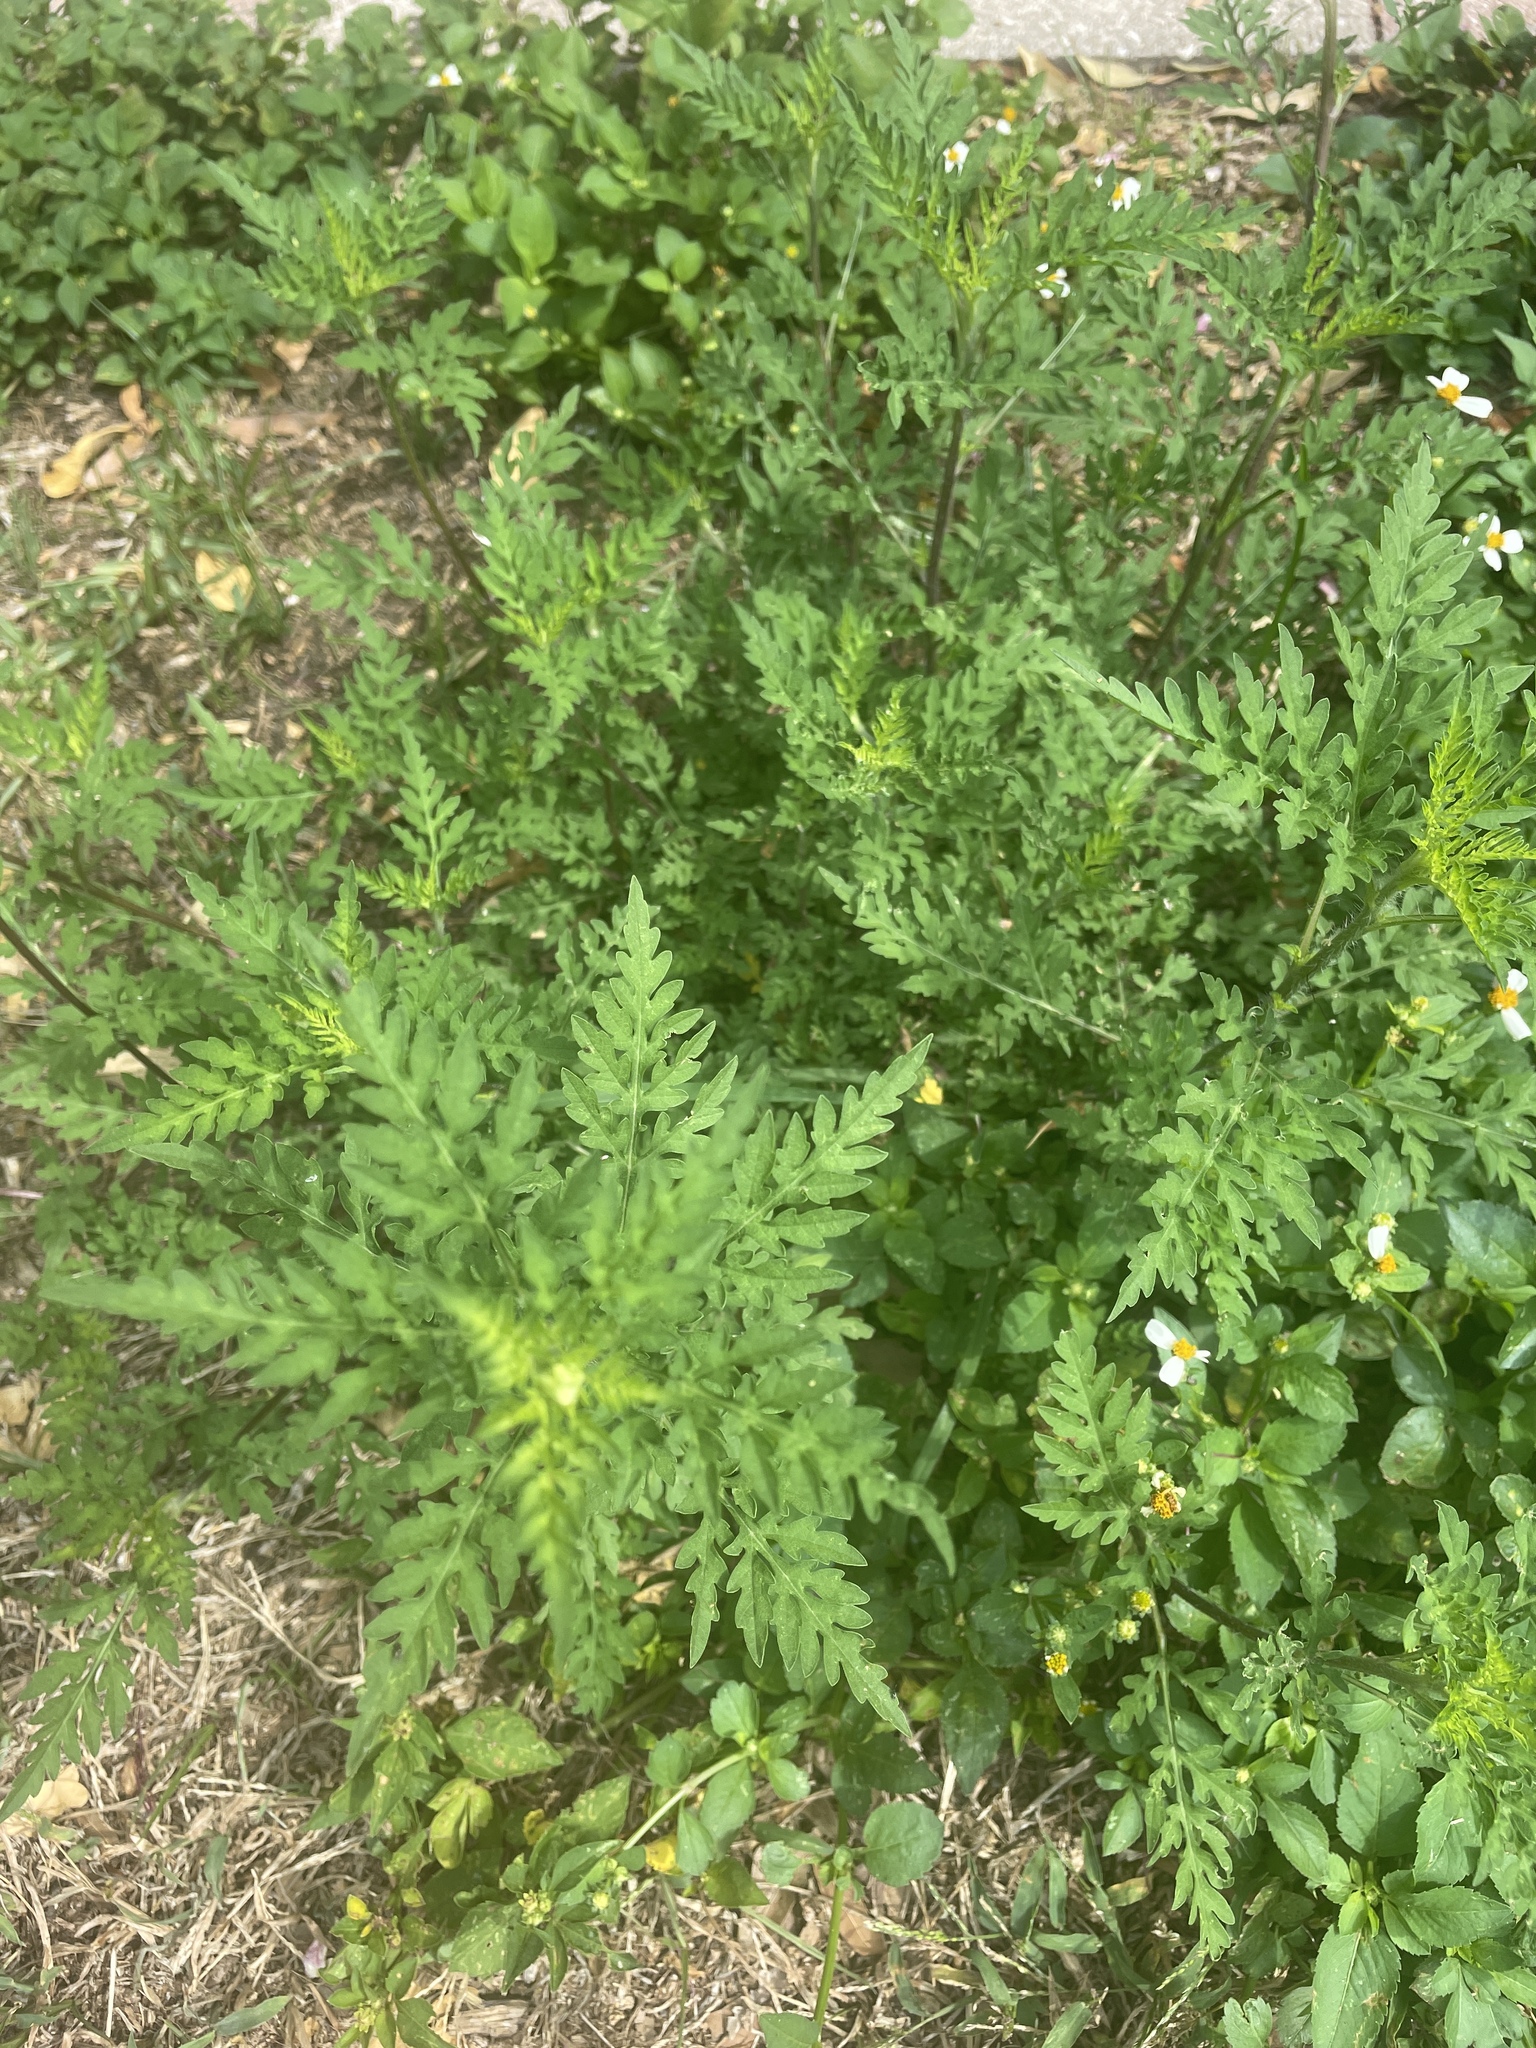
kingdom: Plantae
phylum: Tracheophyta
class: Magnoliopsida
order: Asterales
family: Asteraceae
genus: Ambrosia
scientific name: Ambrosia artemisiifolia
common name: Annual ragweed
